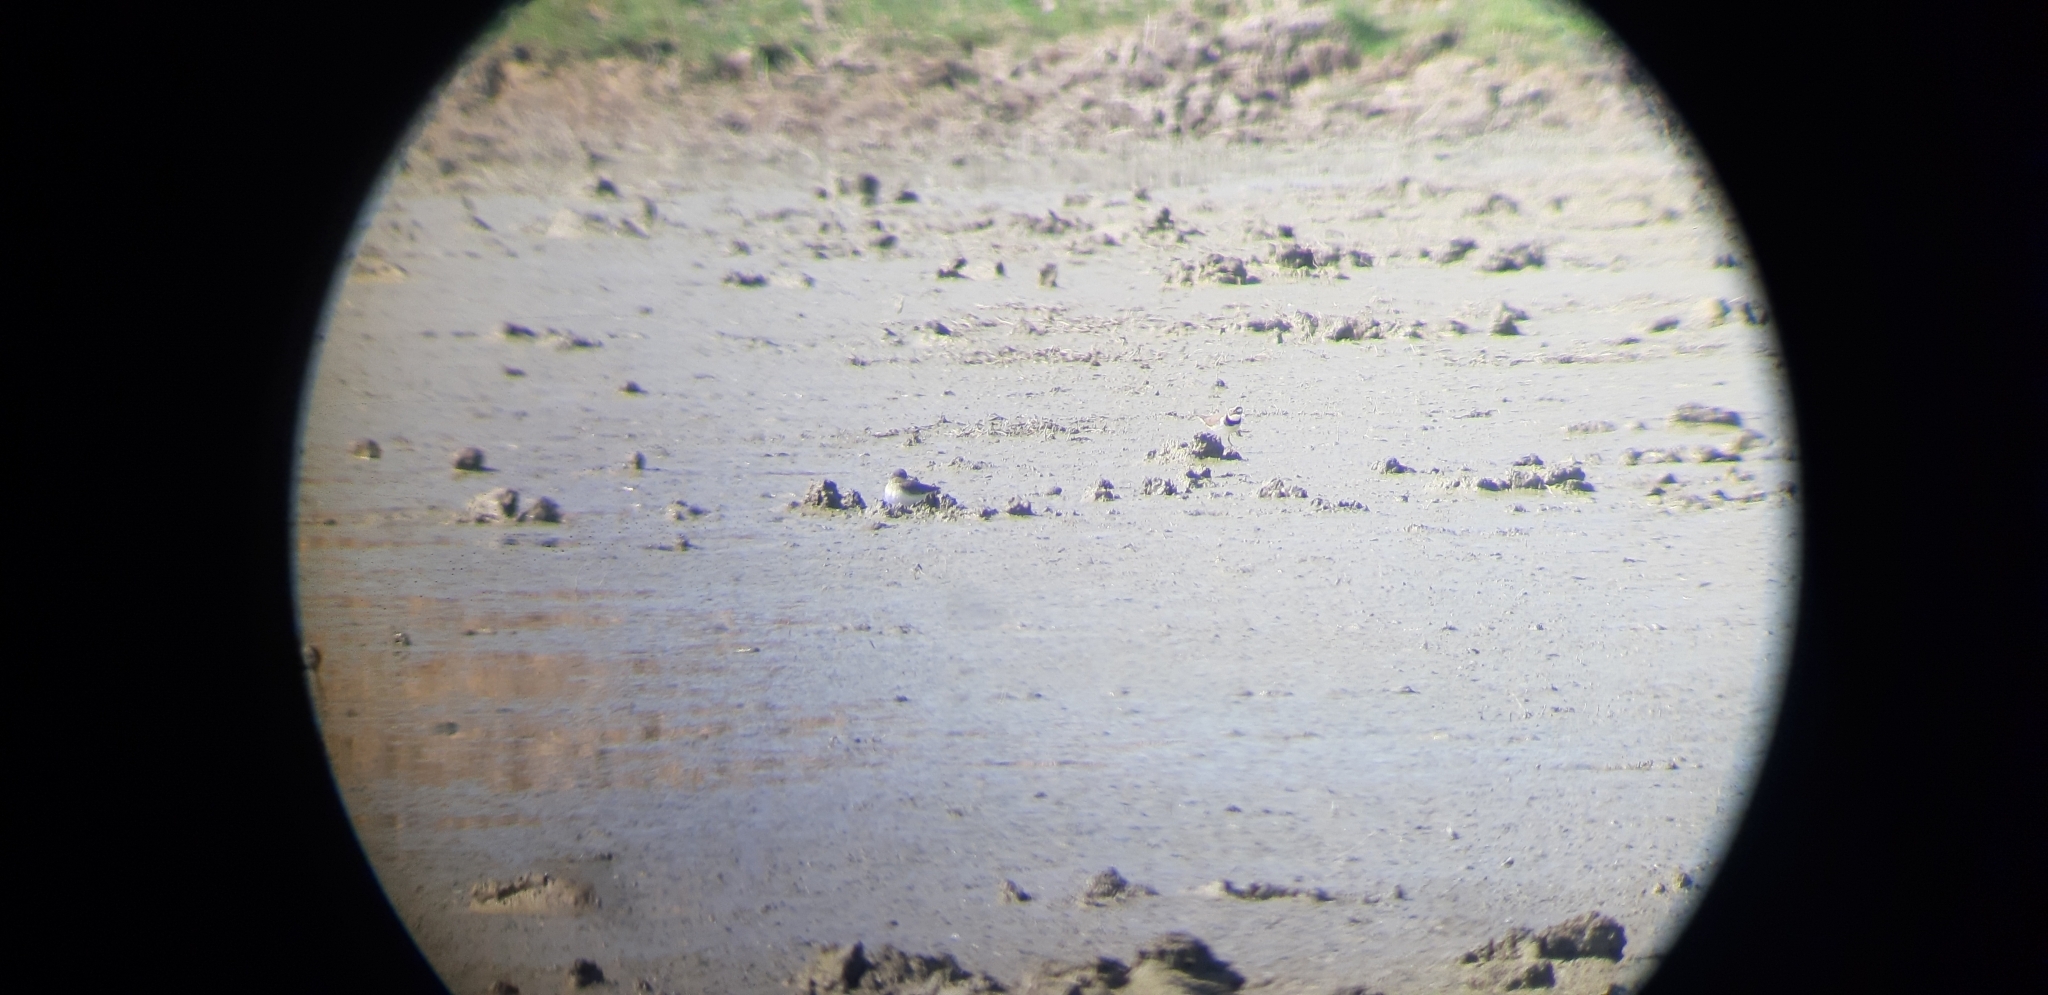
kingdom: Animalia
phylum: Chordata
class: Aves
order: Charadriiformes
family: Charadriidae
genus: Charadrius
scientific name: Charadrius dubius
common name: Little ringed plover
